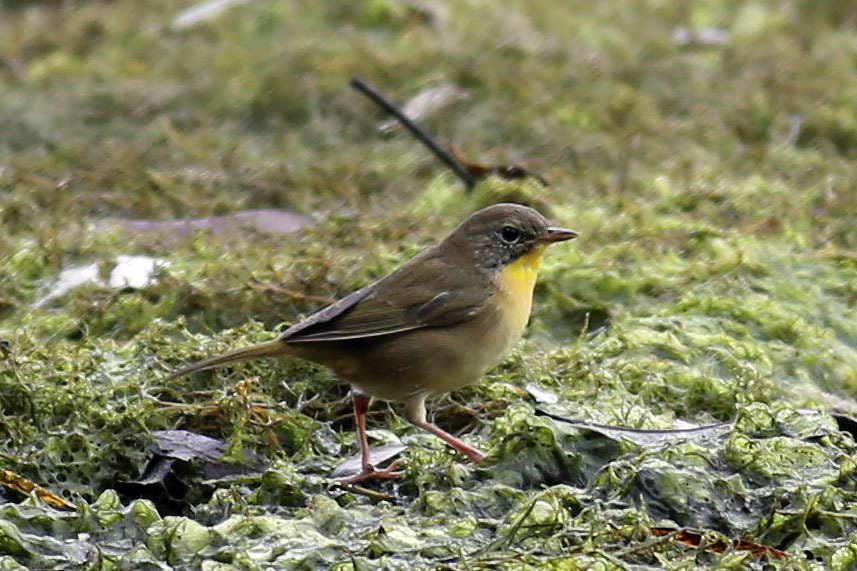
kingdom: Animalia
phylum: Chordata
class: Aves
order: Passeriformes
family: Parulidae
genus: Geothlypis
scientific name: Geothlypis trichas
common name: Common yellowthroat
